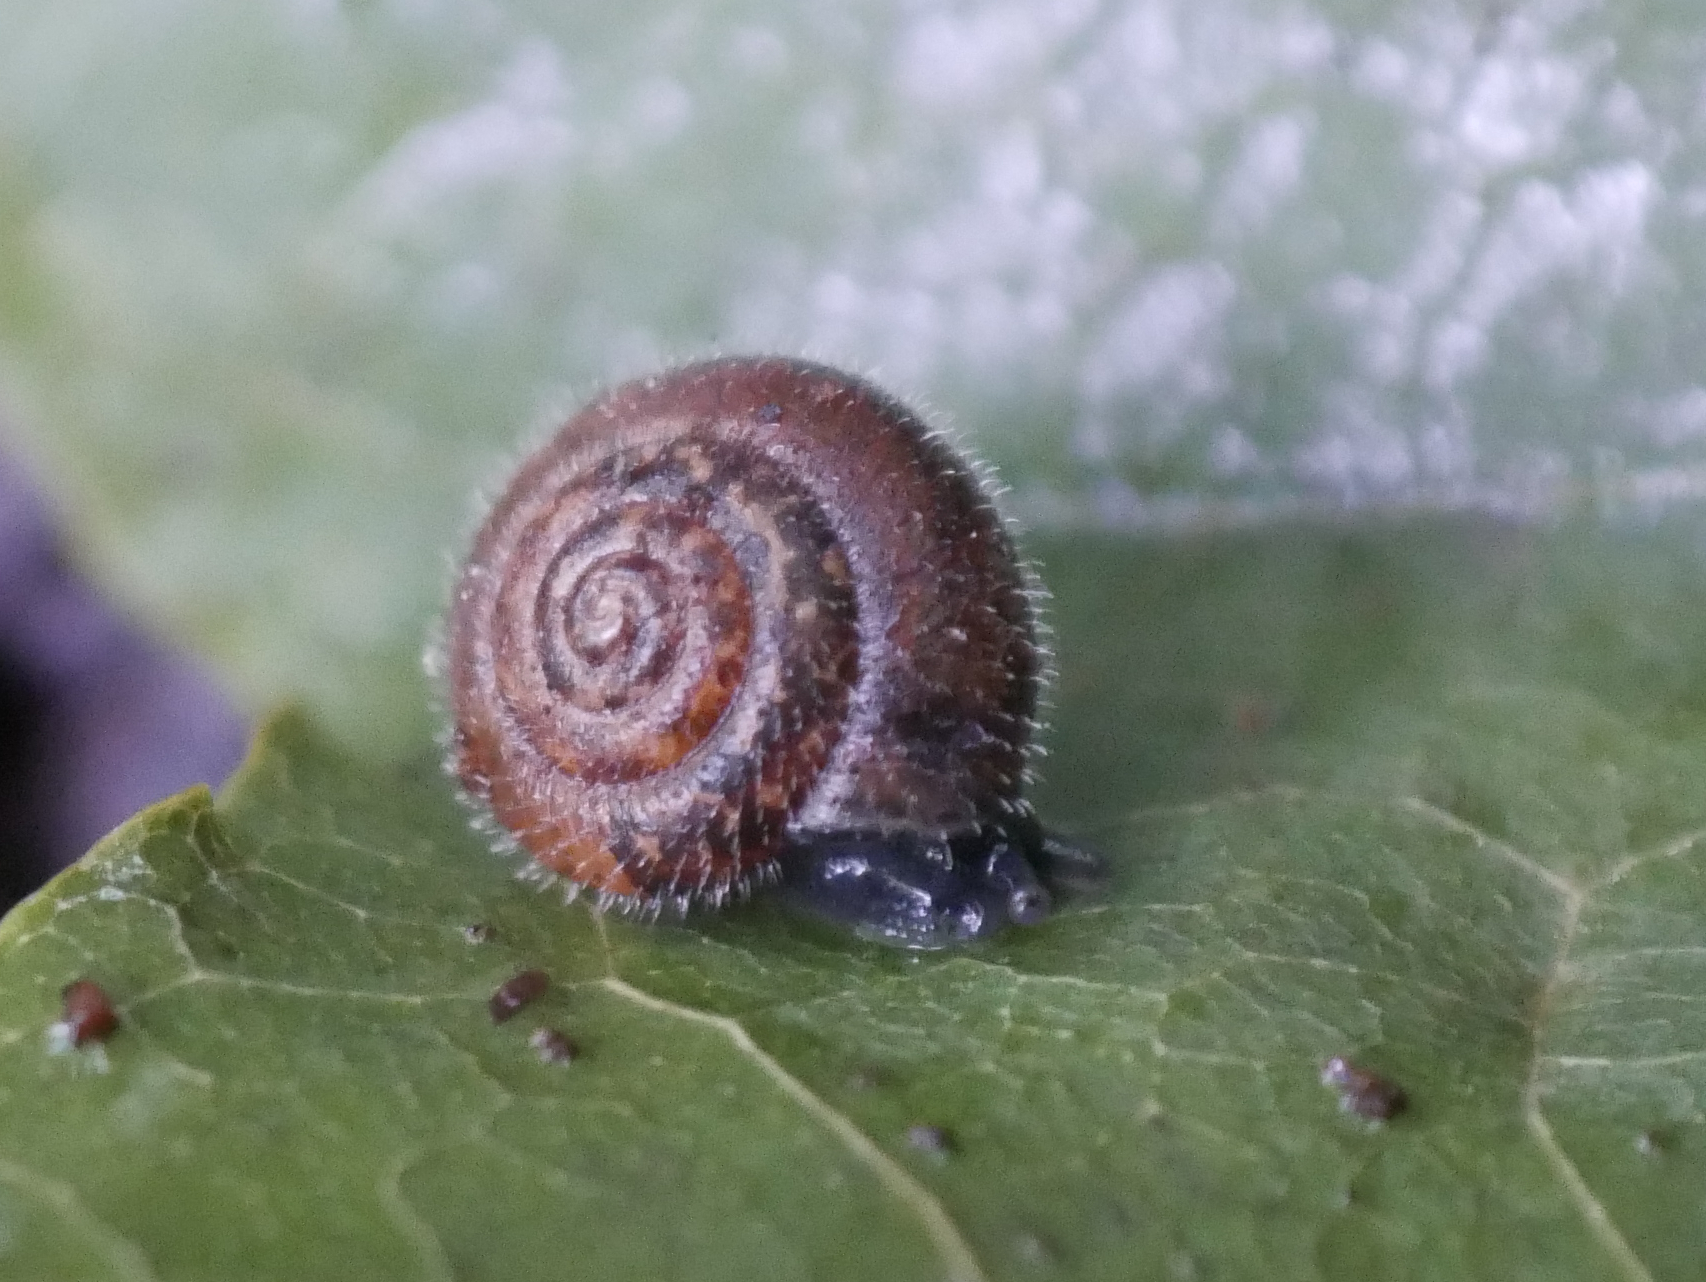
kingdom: Animalia
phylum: Mollusca
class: Gastropoda
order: Stylommatophora
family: Hygromiidae
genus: Trochulus
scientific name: Trochulus hispidus
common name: Hairy snail
